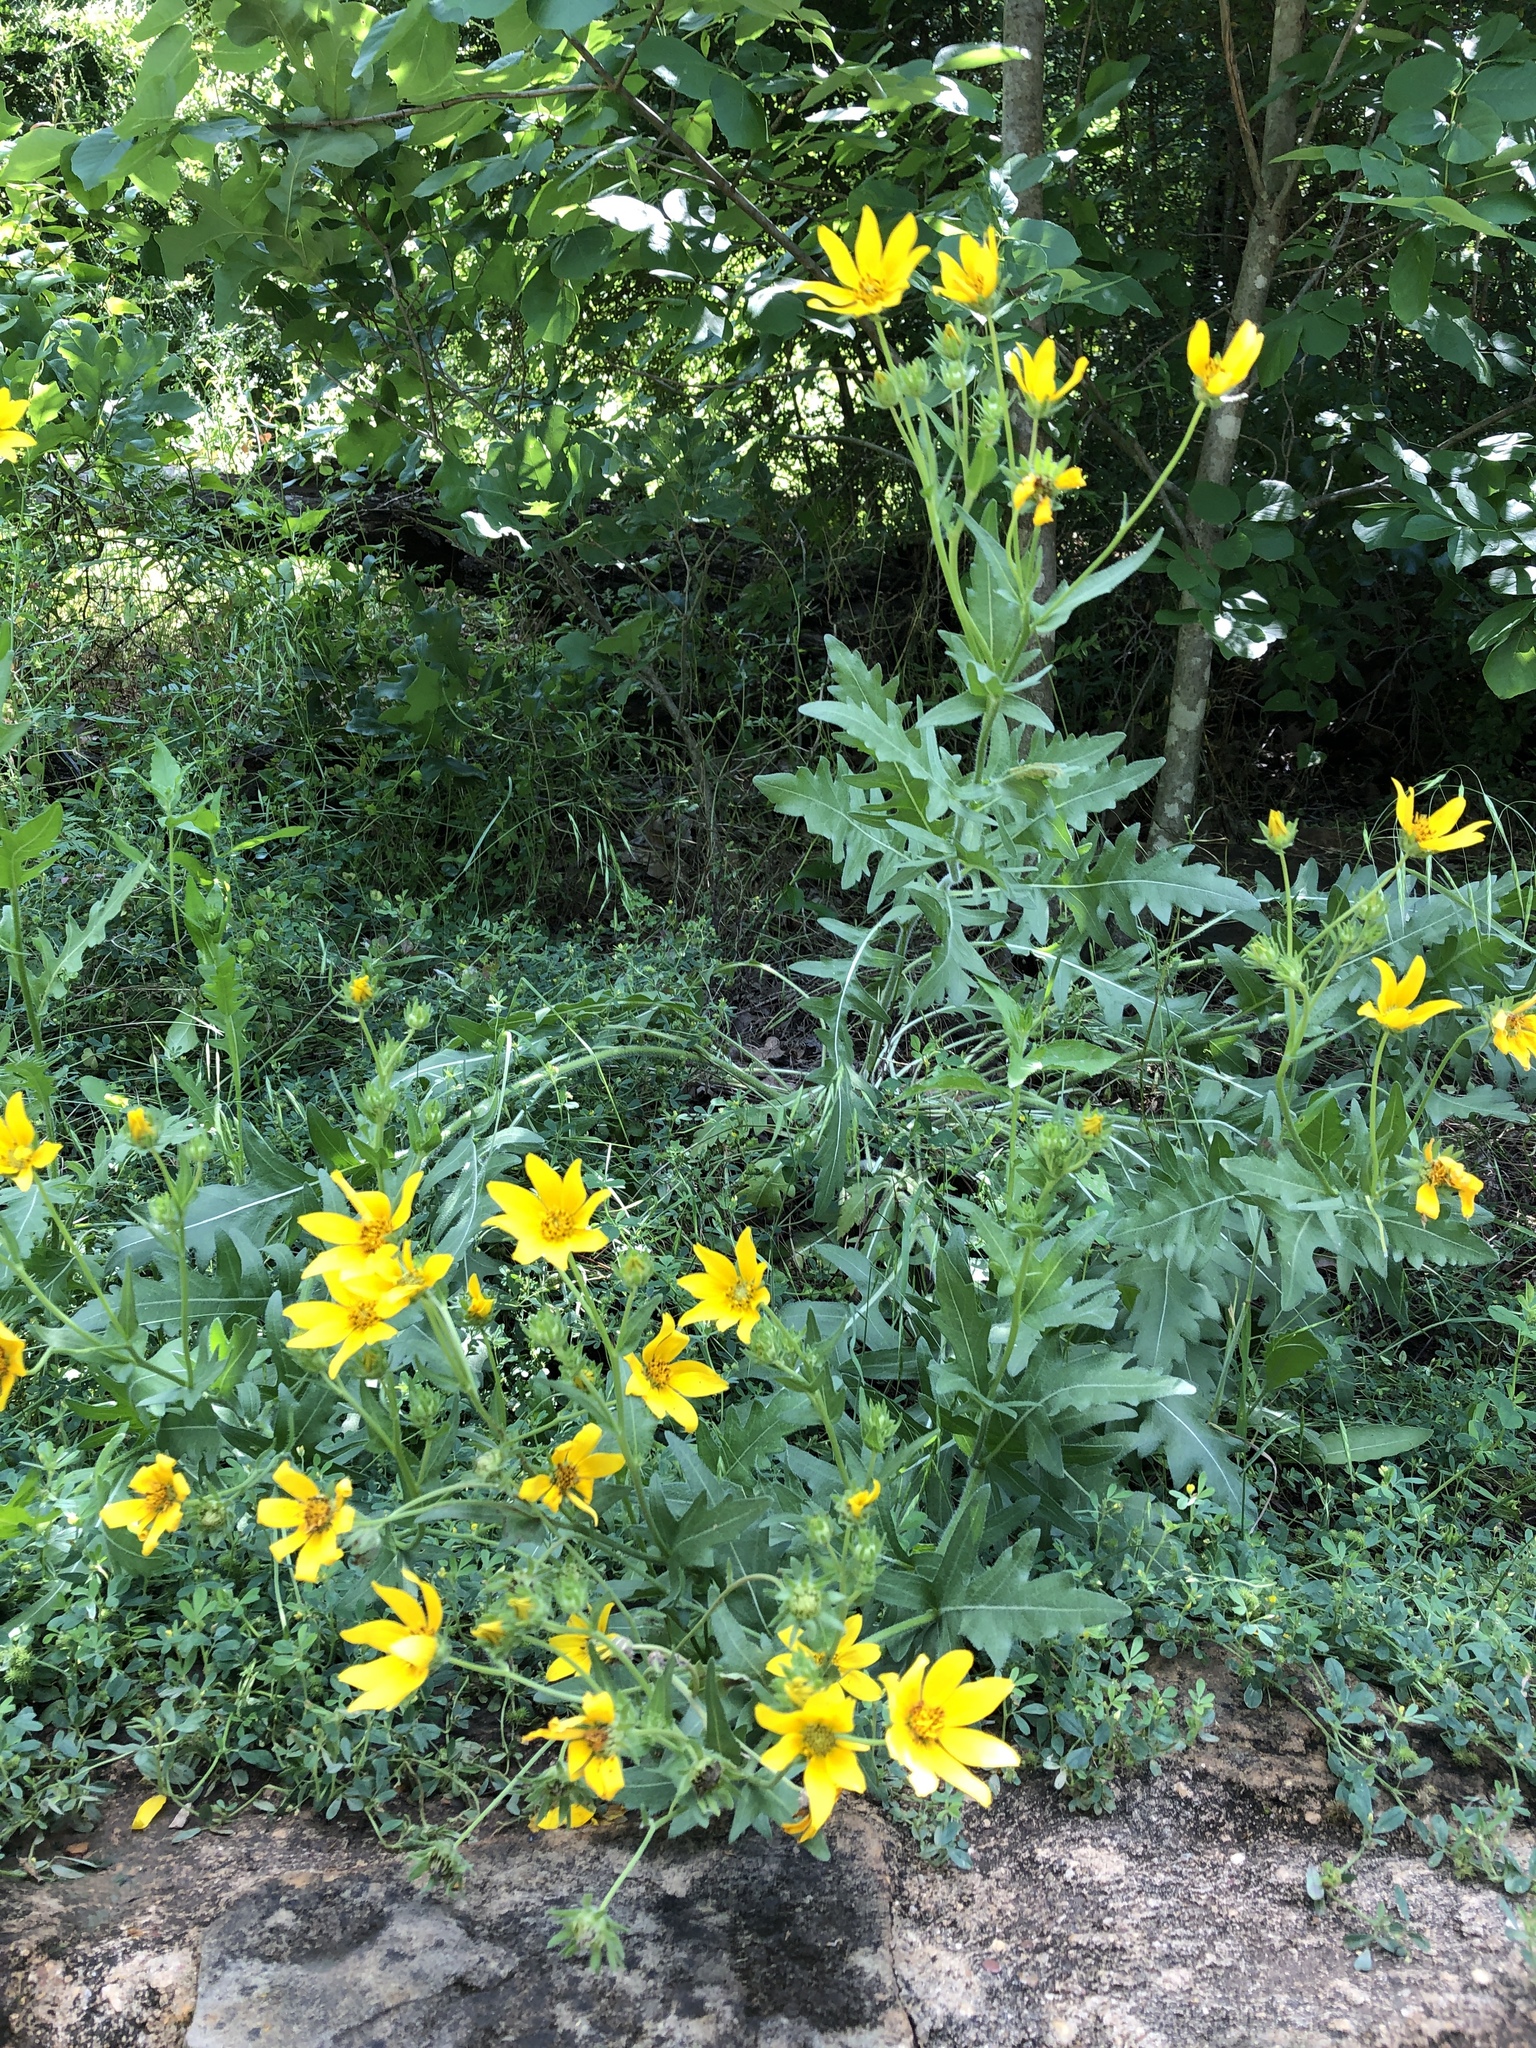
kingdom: Plantae
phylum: Tracheophyta
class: Magnoliopsida
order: Asterales
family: Asteraceae
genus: Engelmannia
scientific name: Engelmannia peristenia
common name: Engelmann's daisy
